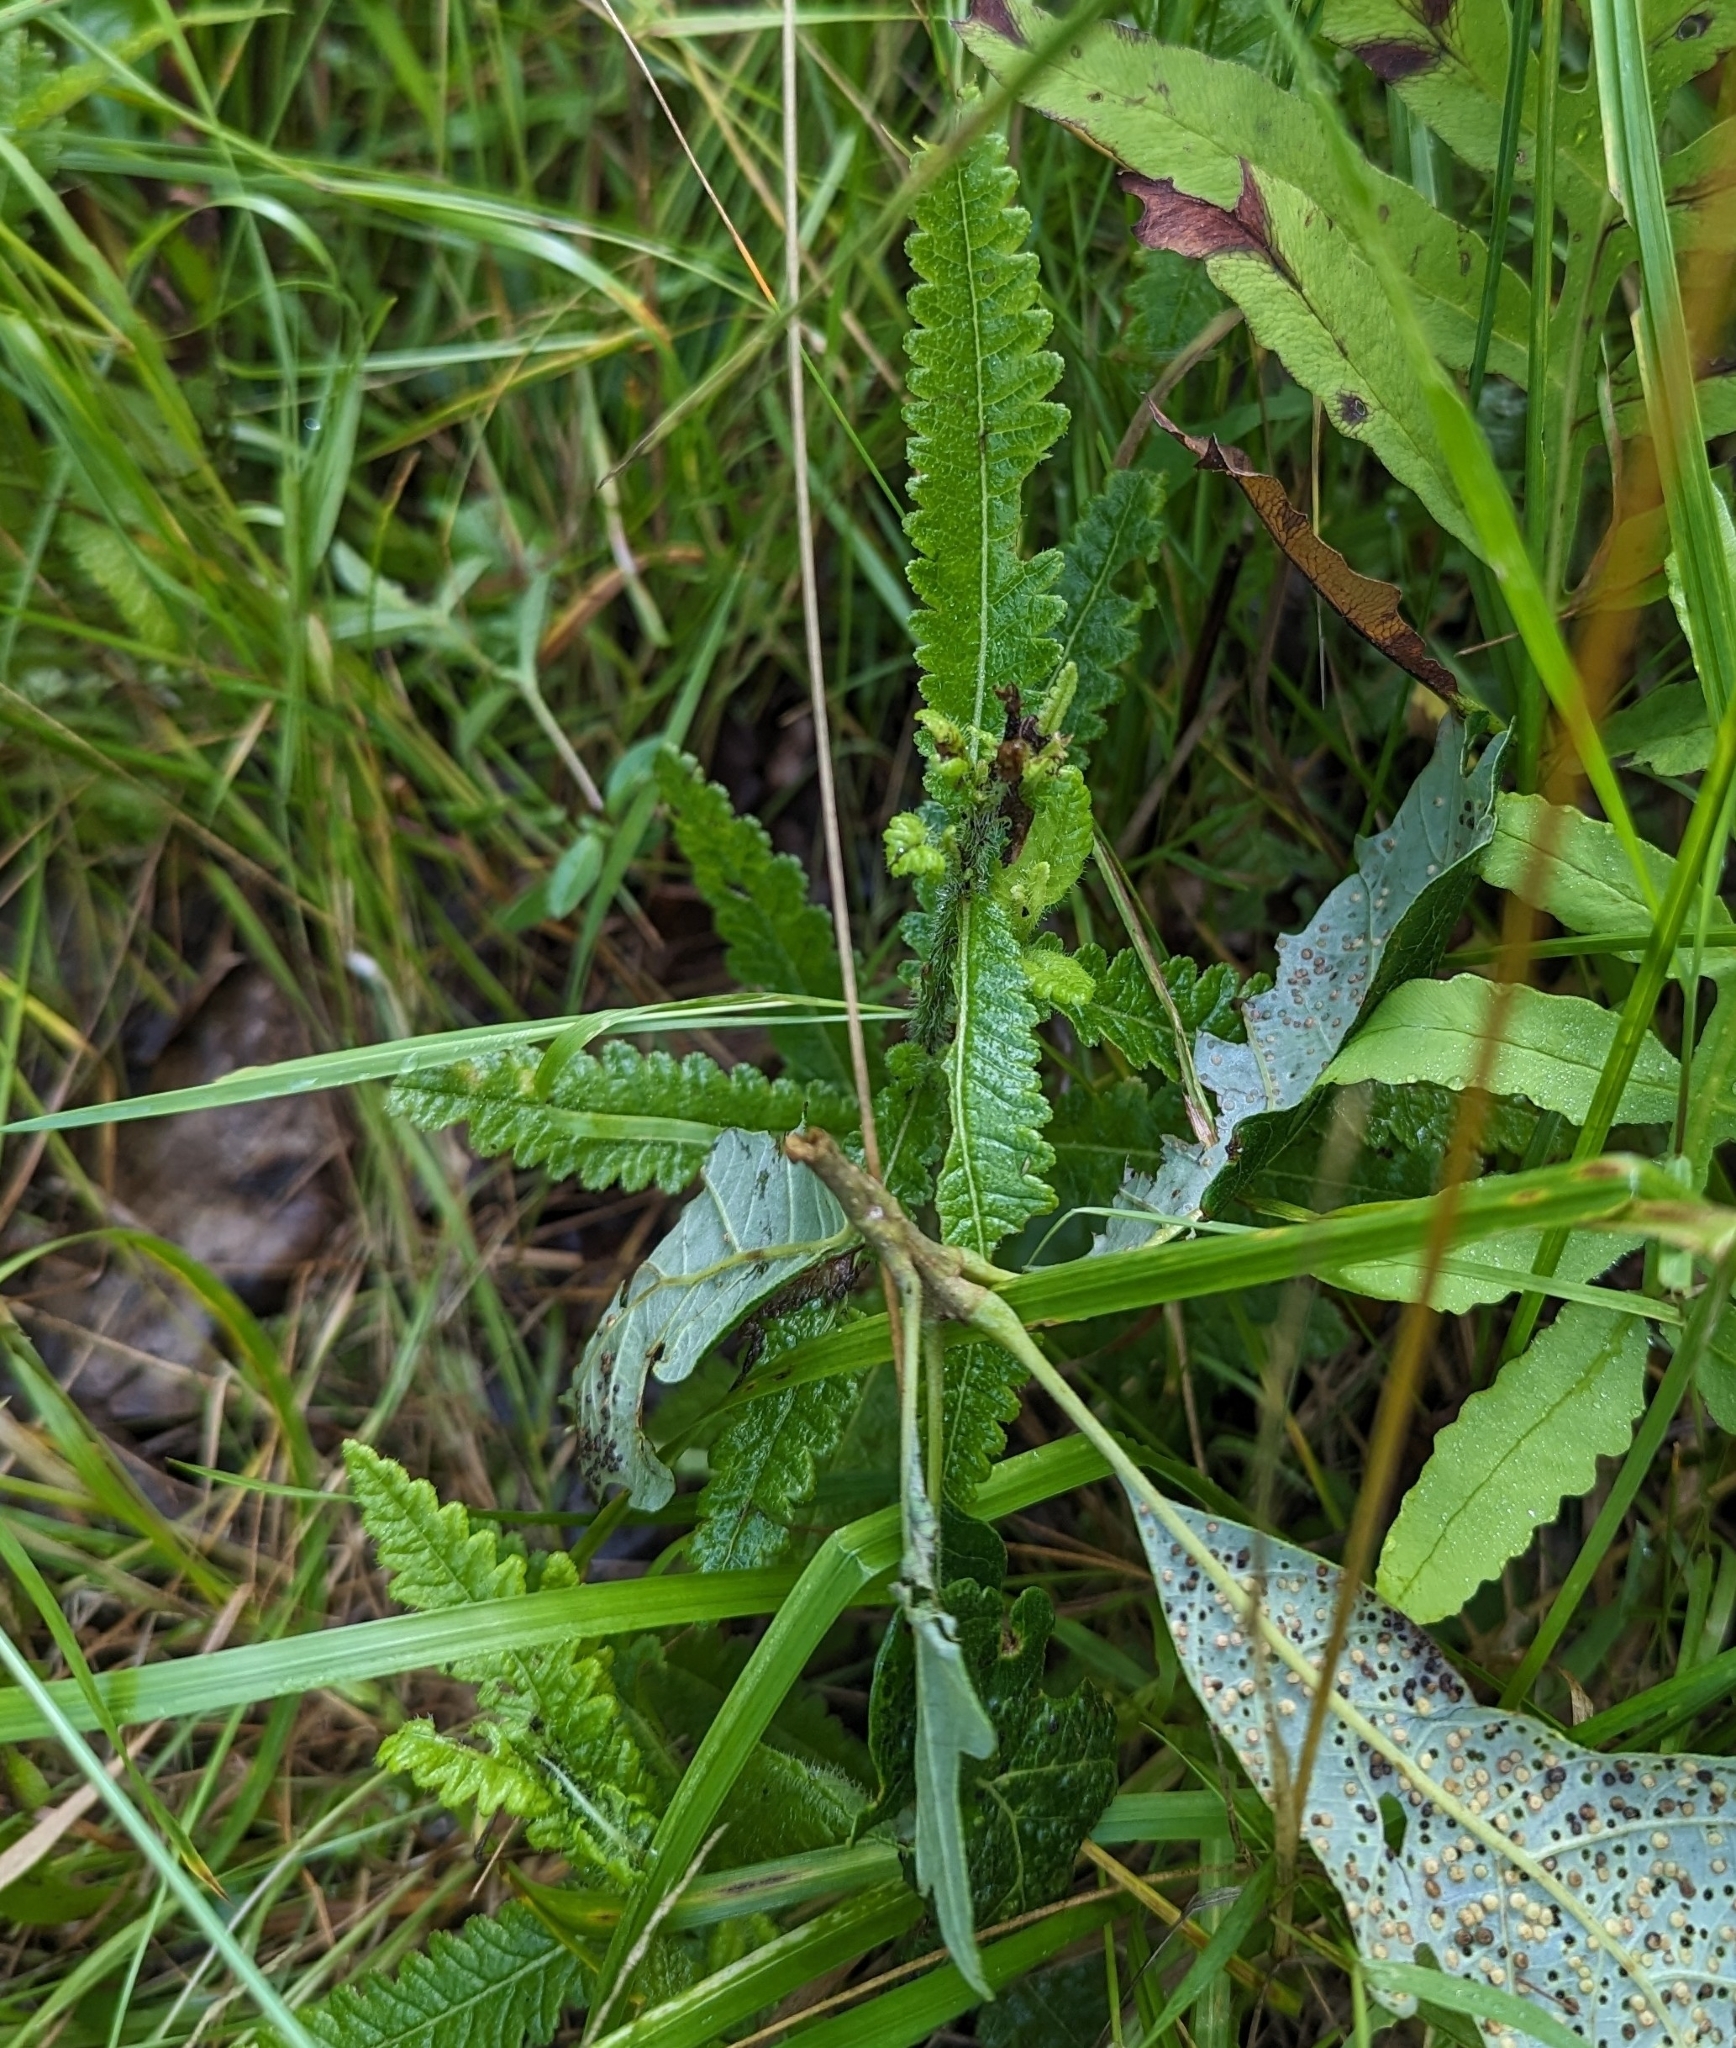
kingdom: Plantae
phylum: Tracheophyta
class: Magnoliopsida
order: Lamiales
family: Orobanchaceae
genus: Pedicularis
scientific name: Pedicularis lanceolata
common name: Swamp lousewort
